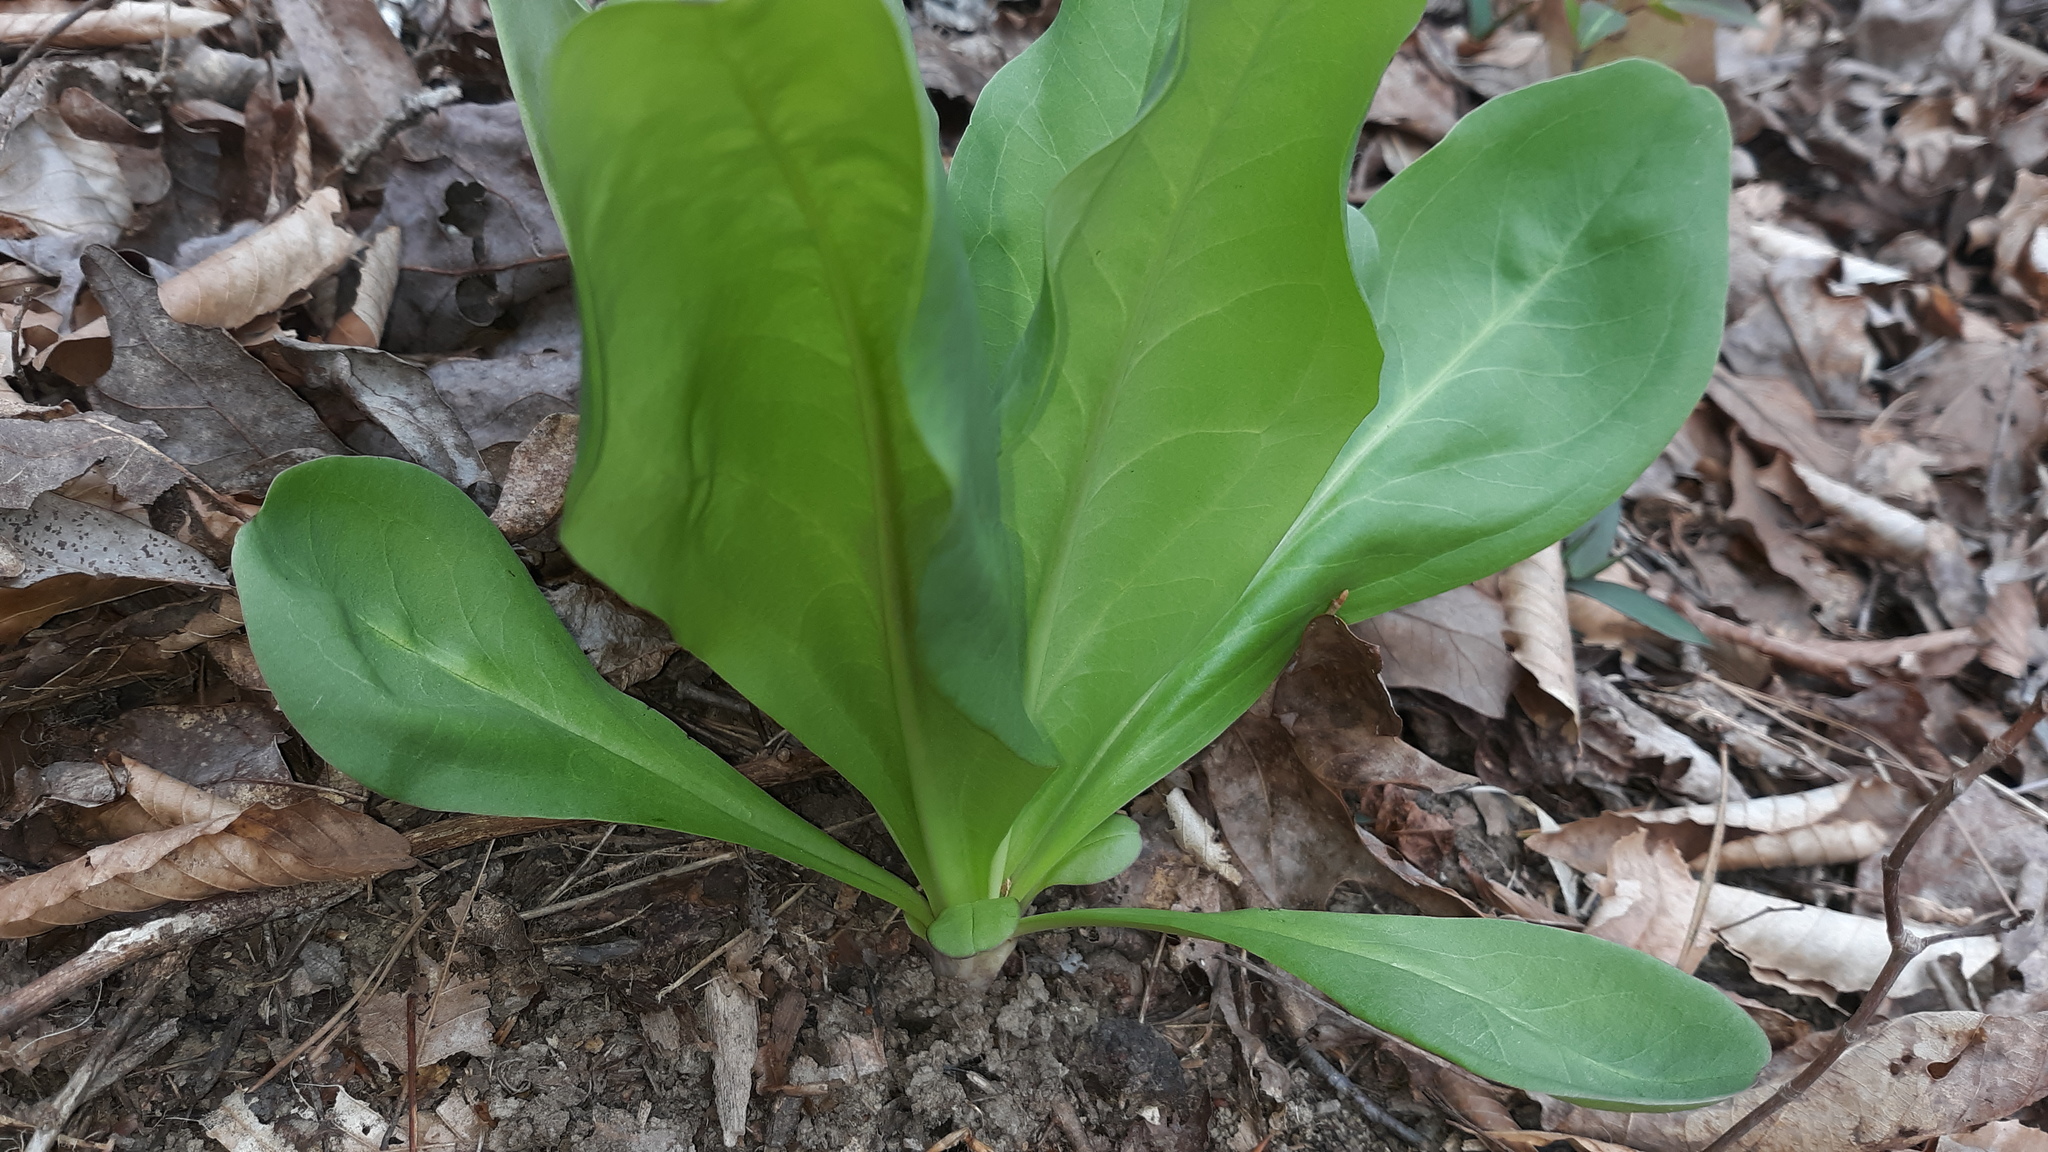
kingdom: Plantae
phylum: Tracheophyta
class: Magnoliopsida
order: Gentianales
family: Gentianaceae
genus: Frasera
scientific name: Frasera caroliniensis
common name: American columbo
